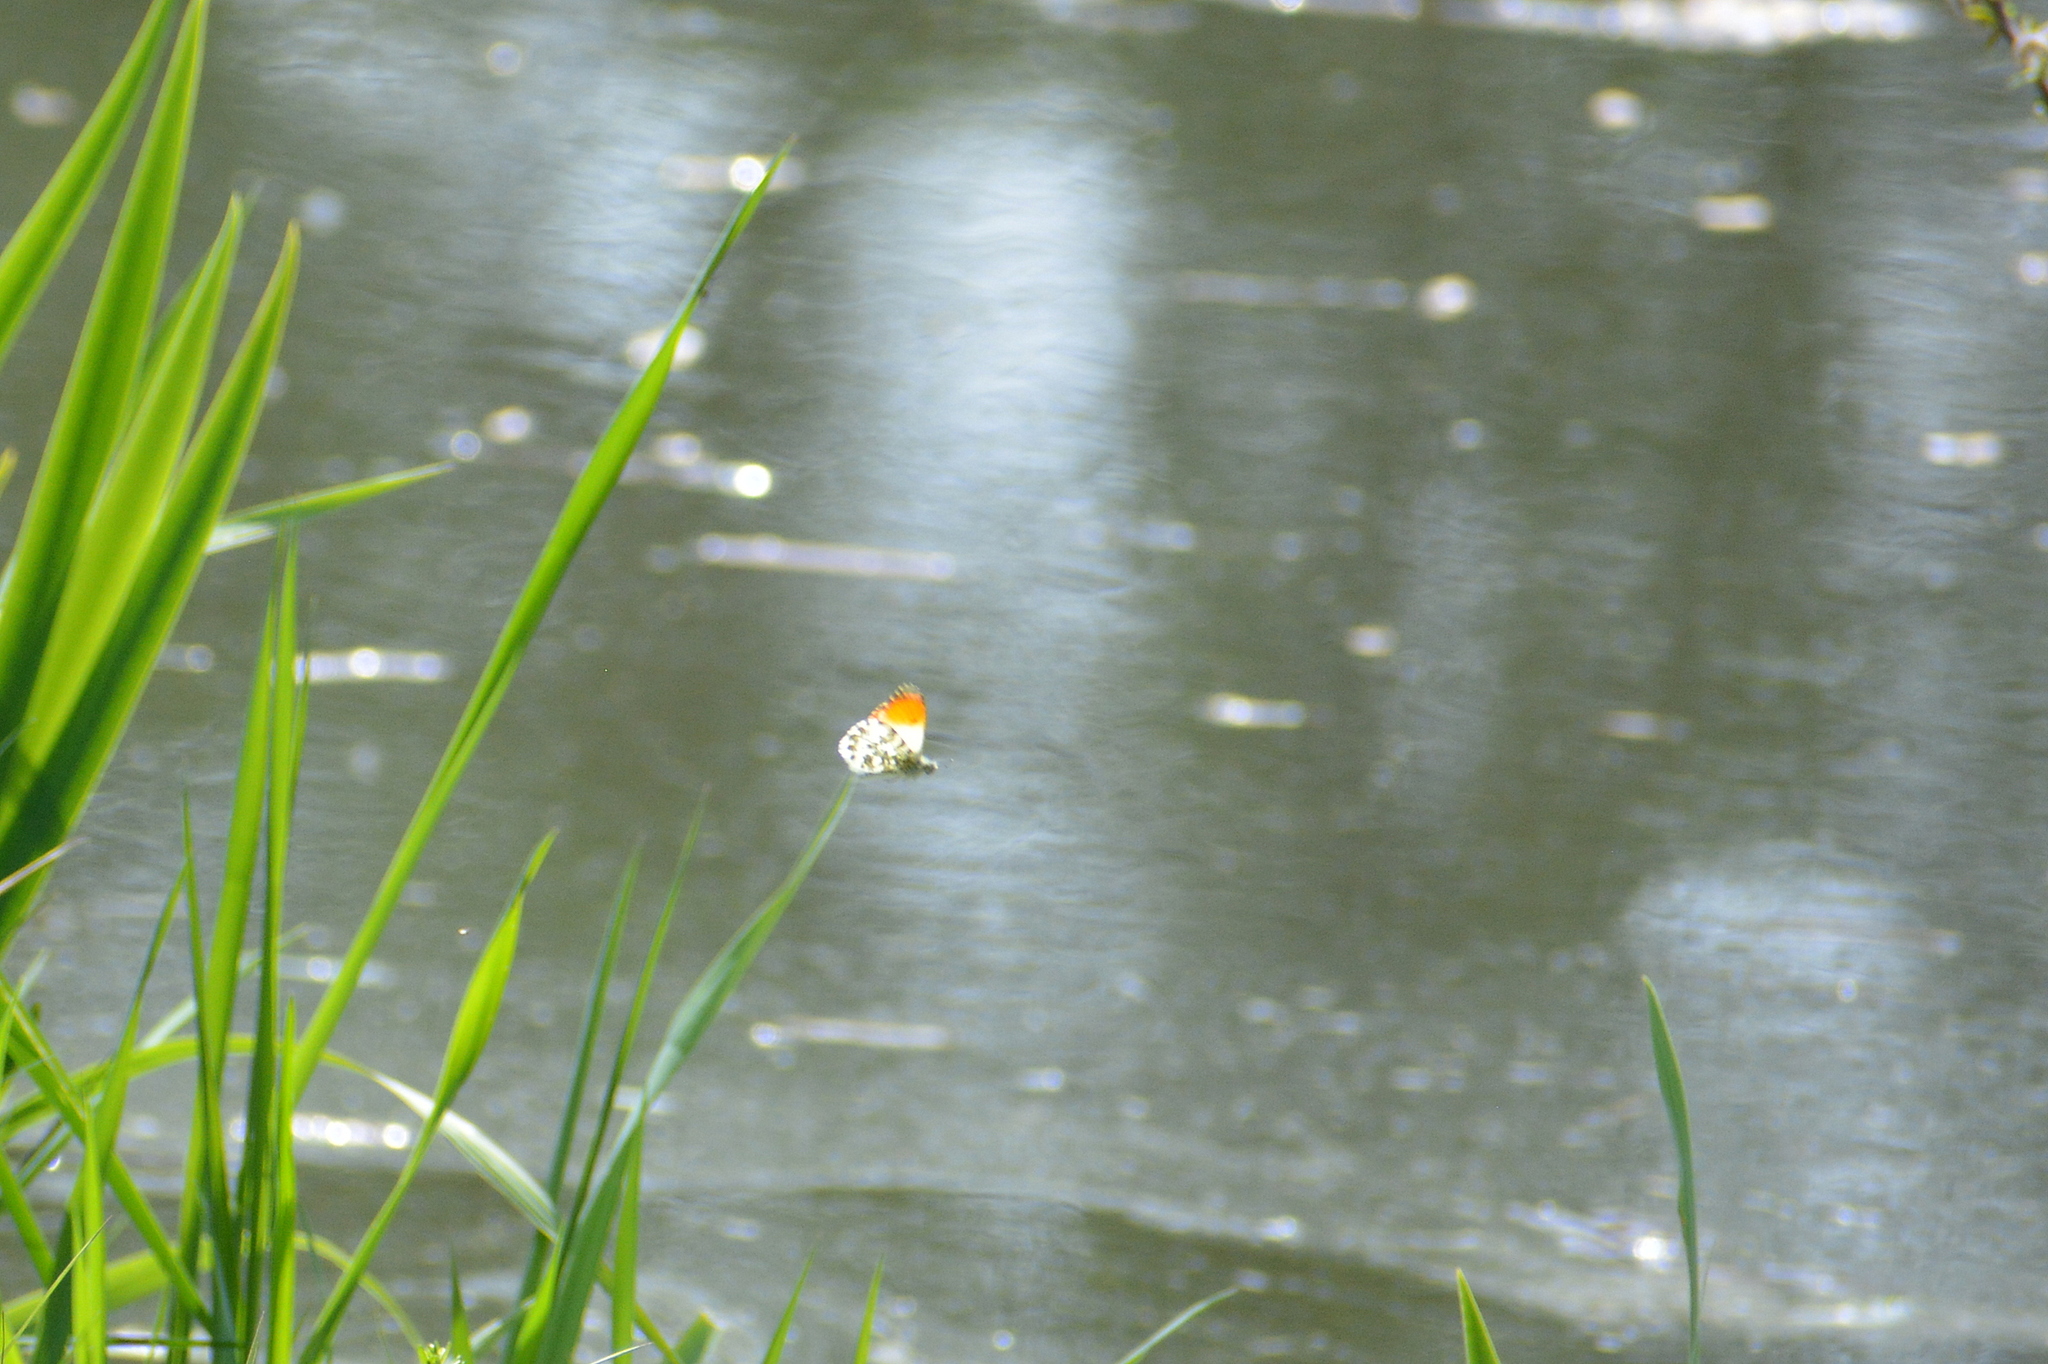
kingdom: Animalia
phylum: Arthropoda
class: Insecta
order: Lepidoptera
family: Pieridae
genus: Anthocharis
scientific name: Anthocharis cardamines
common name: Orange-tip
